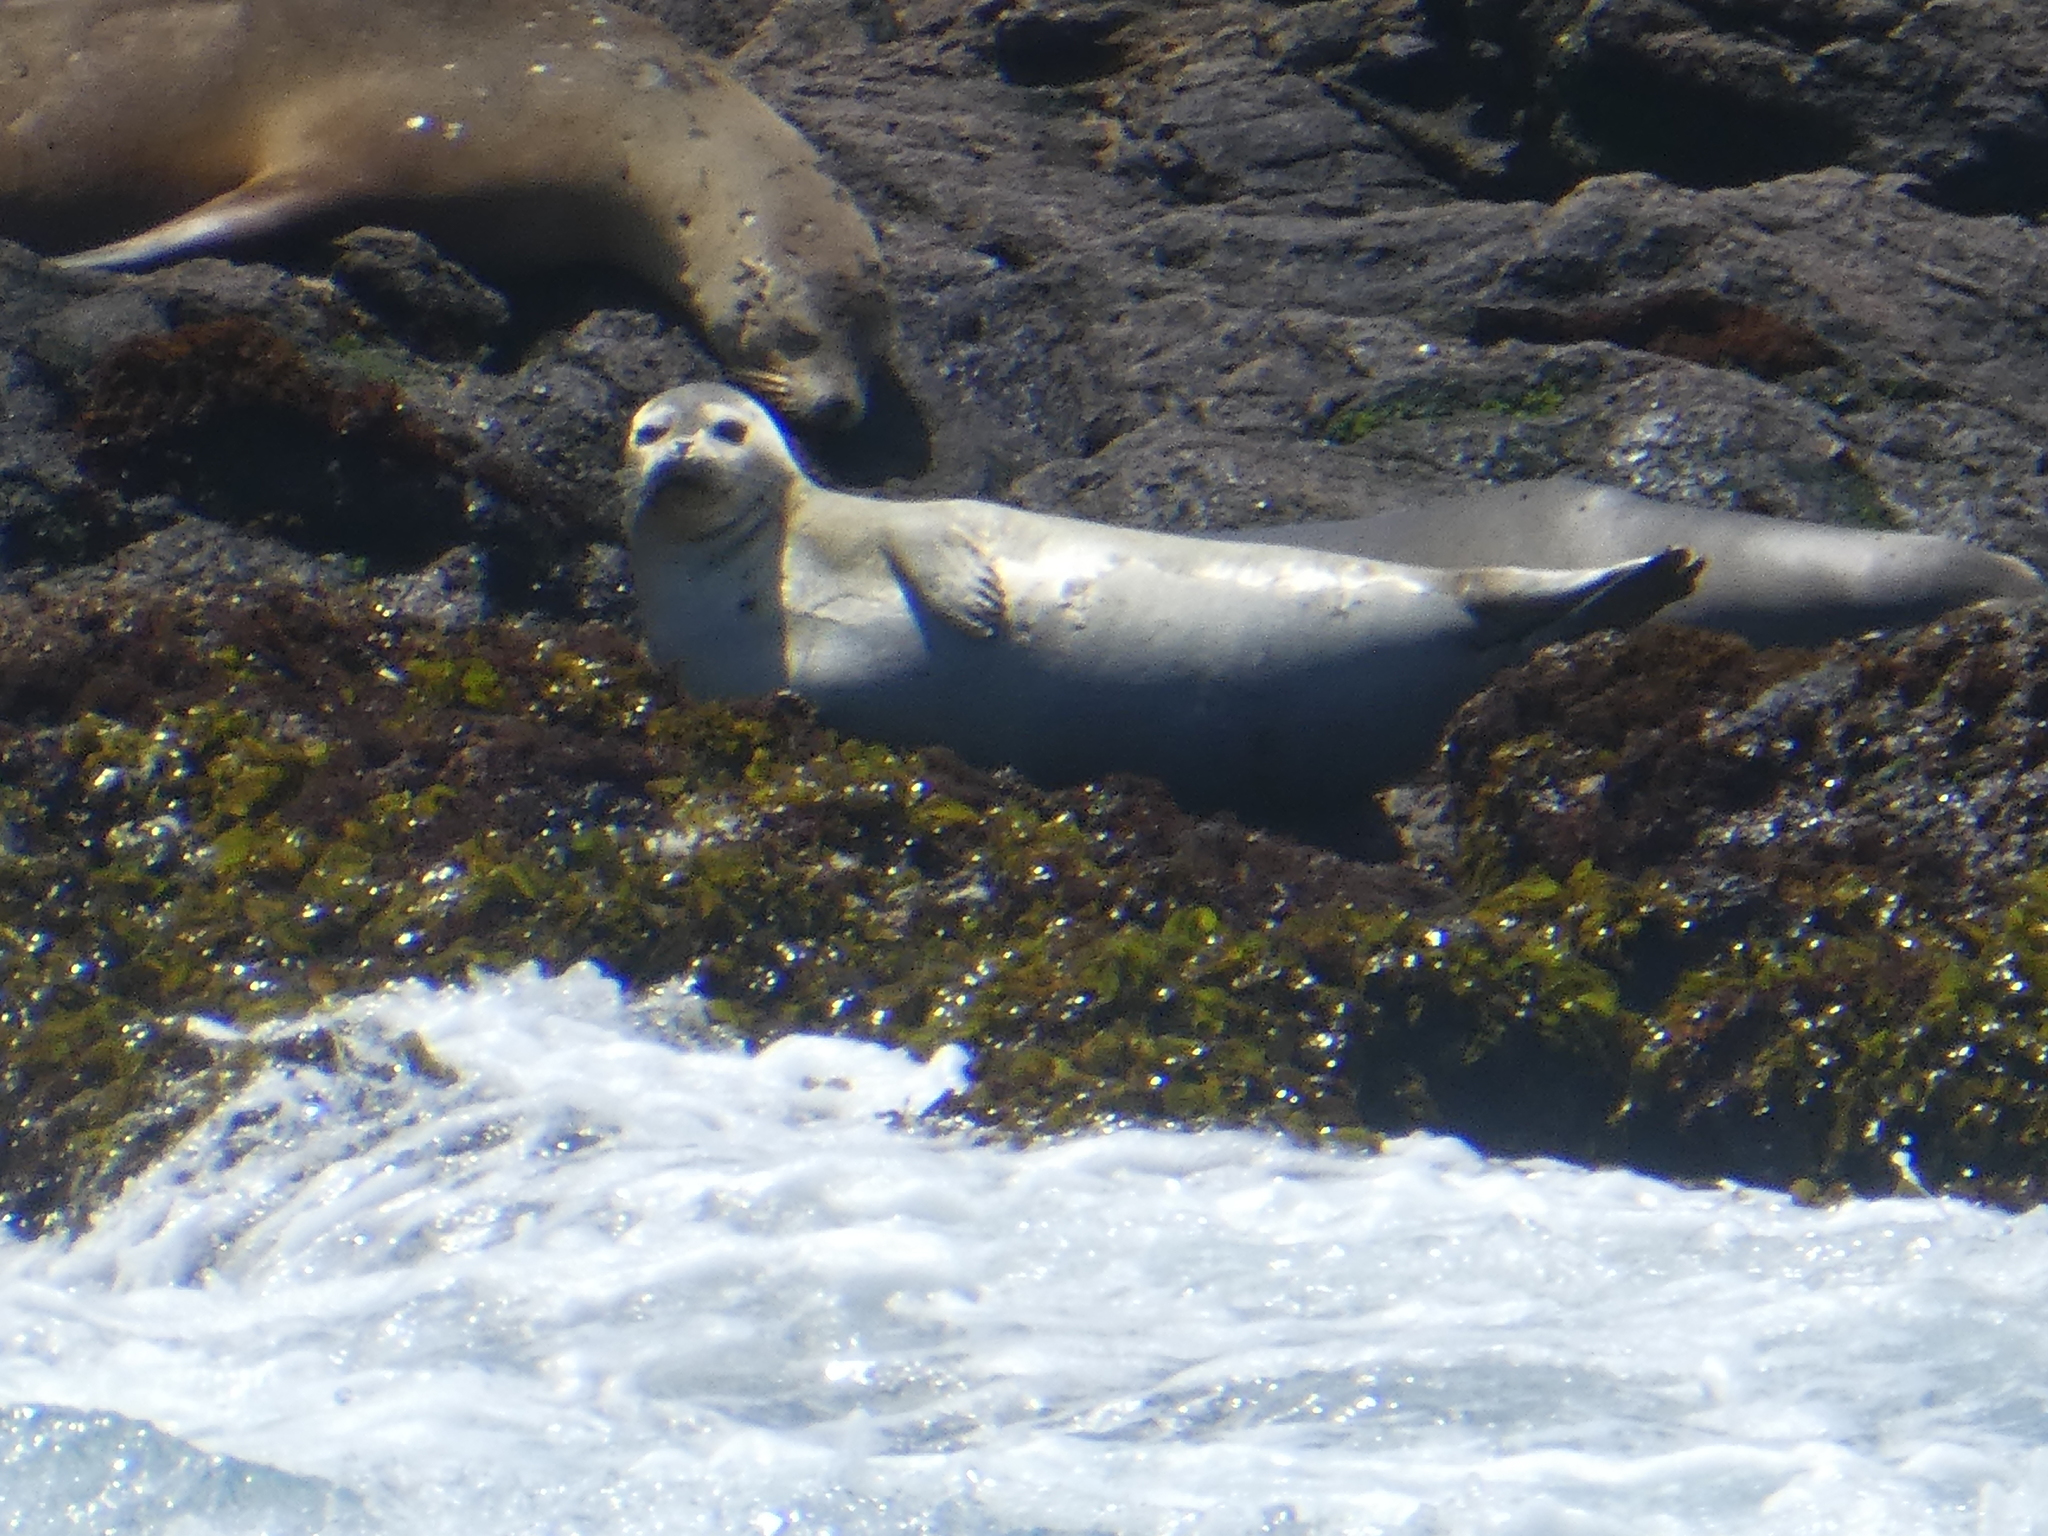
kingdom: Animalia
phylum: Chordata
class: Mammalia
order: Carnivora
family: Phocidae
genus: Phoca
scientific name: Phoca vitulina
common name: Harbor seal
